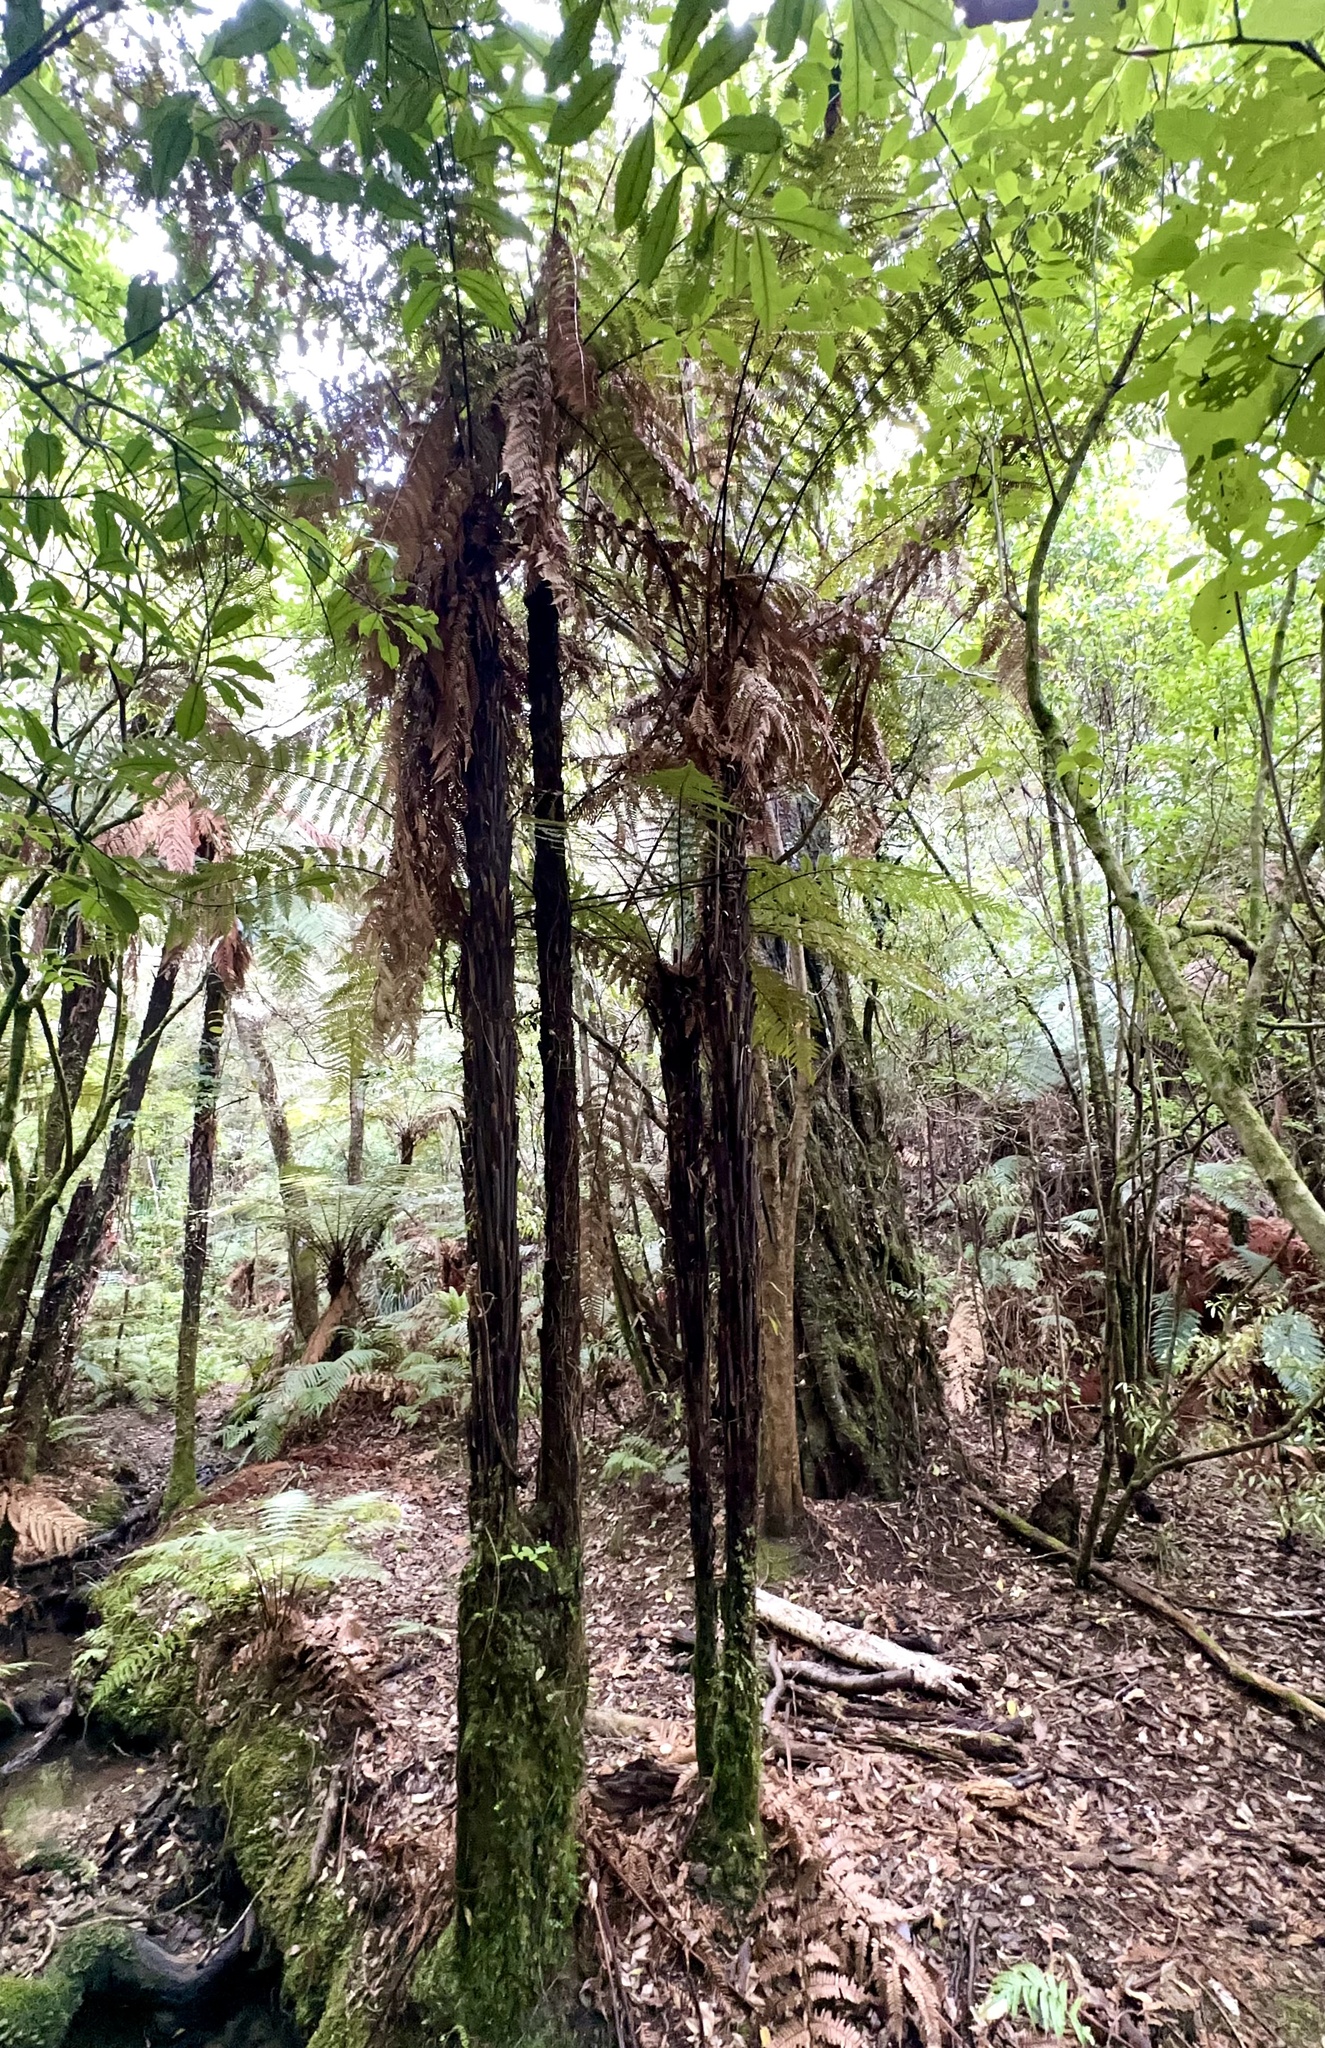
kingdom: Plantae
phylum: Tracheophyta
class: Polypodiopsida
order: Cyatheales
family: Dicksoniaceae
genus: Dicksonia
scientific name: Dicksonia squarrosa
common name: Hard treefern
